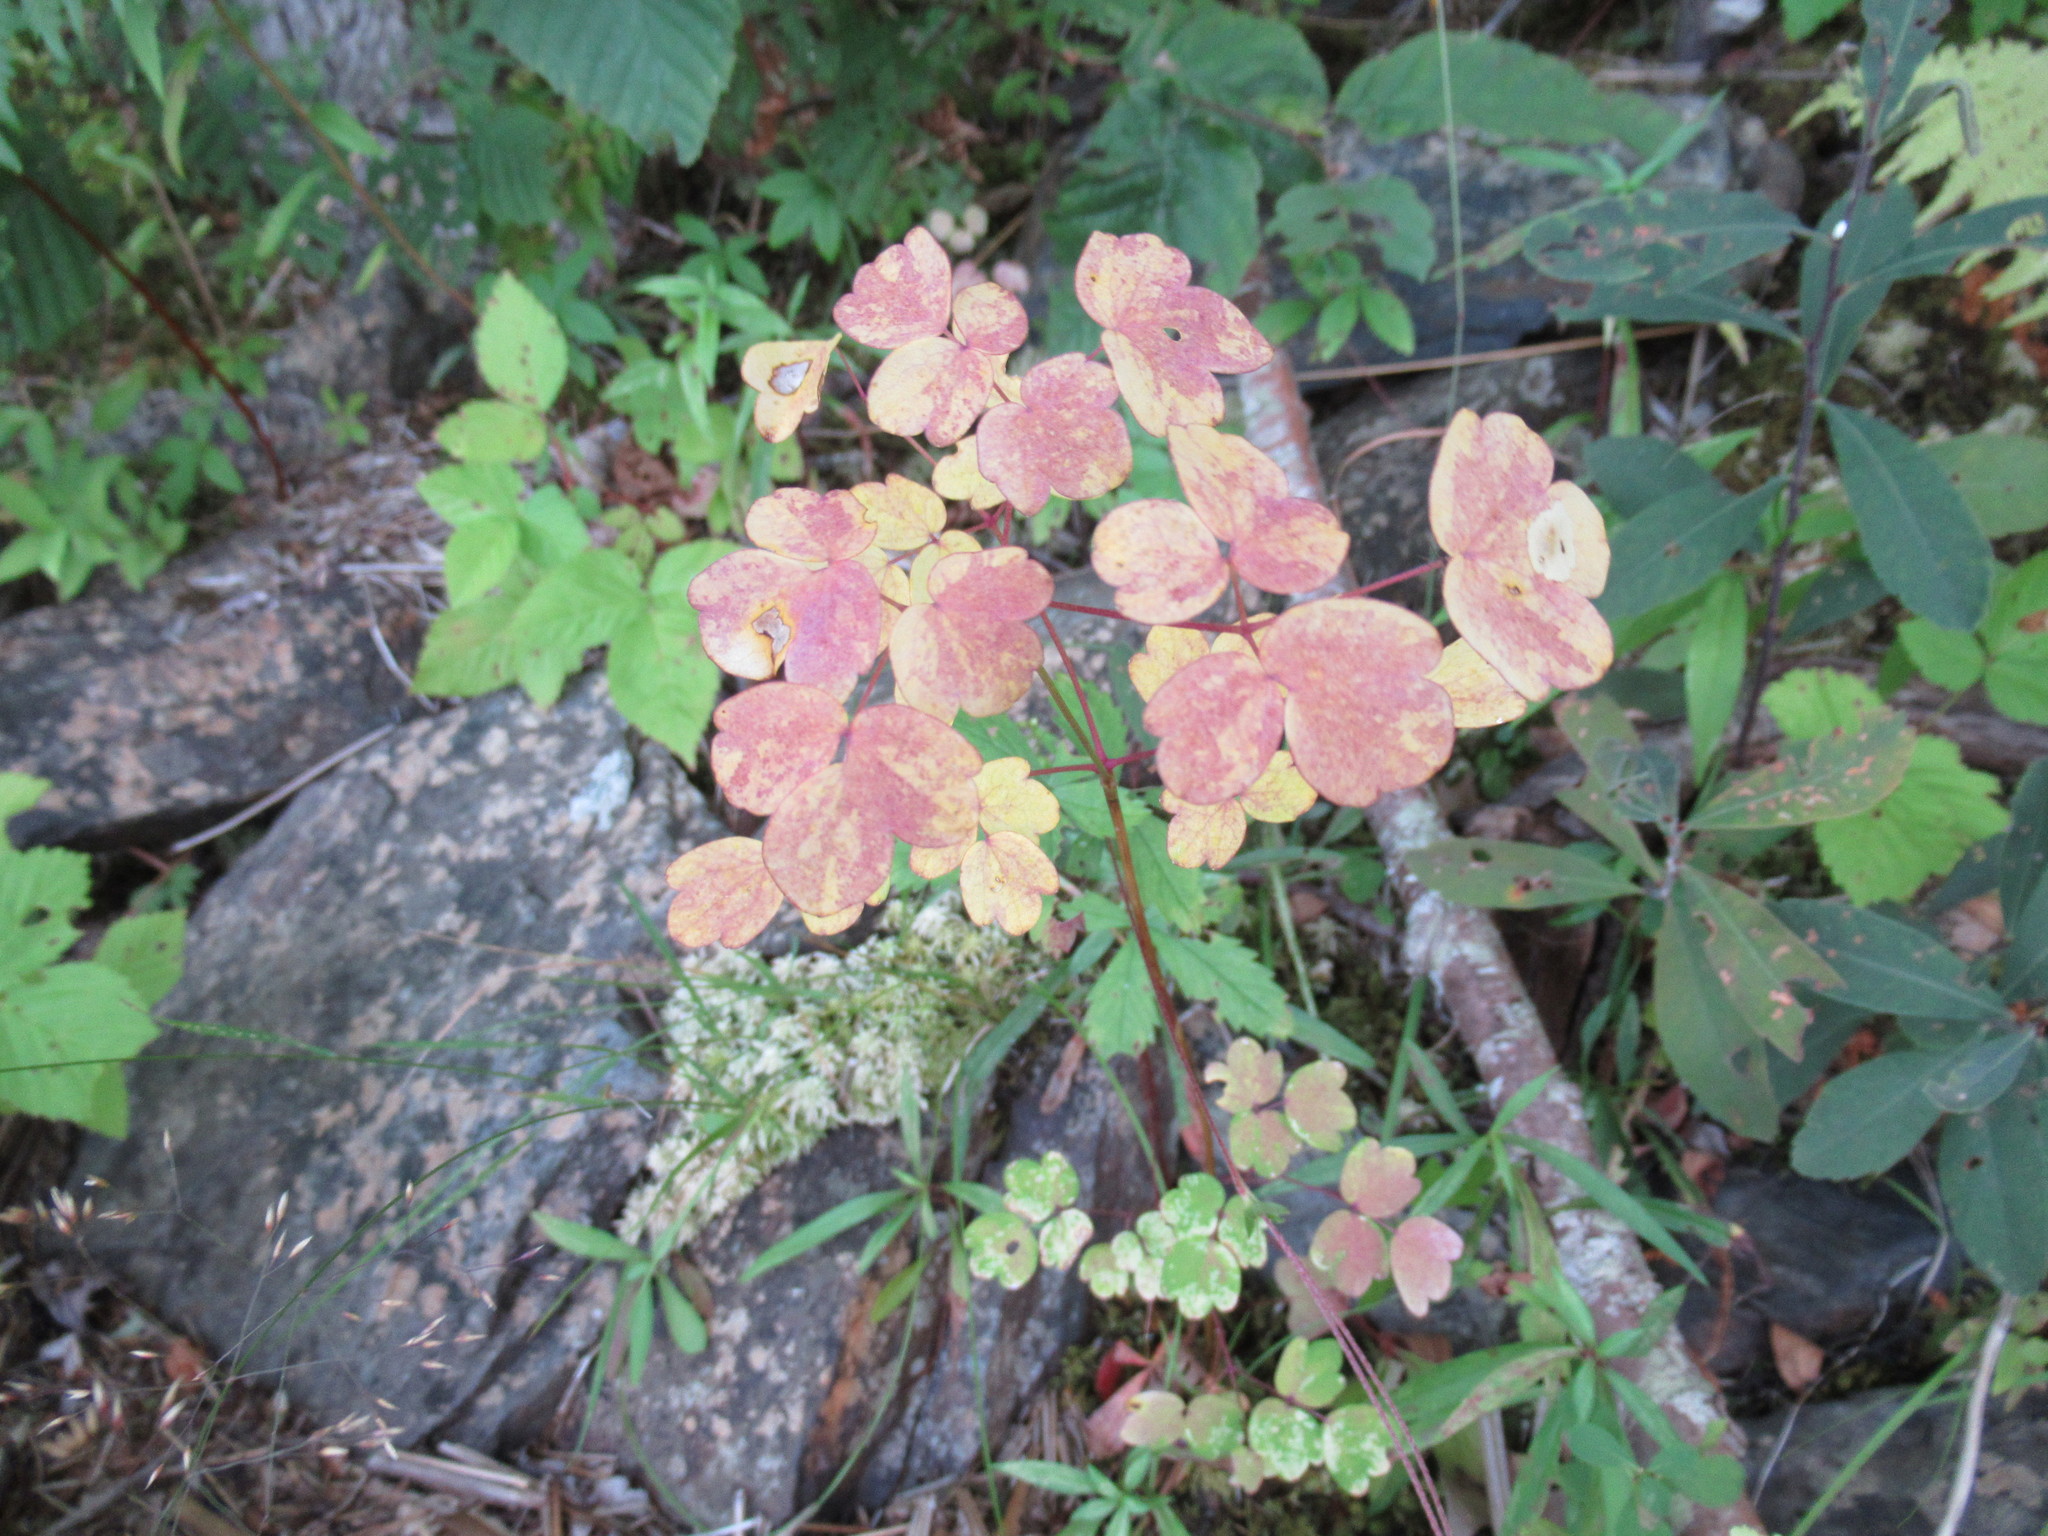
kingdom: Plantae
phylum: Tracheophyta
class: Magnoliopsida
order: Ranunculales
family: Ranunculaceae
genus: Thalictrum
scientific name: Thalictrum pubescens
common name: King-of-the-meadow
